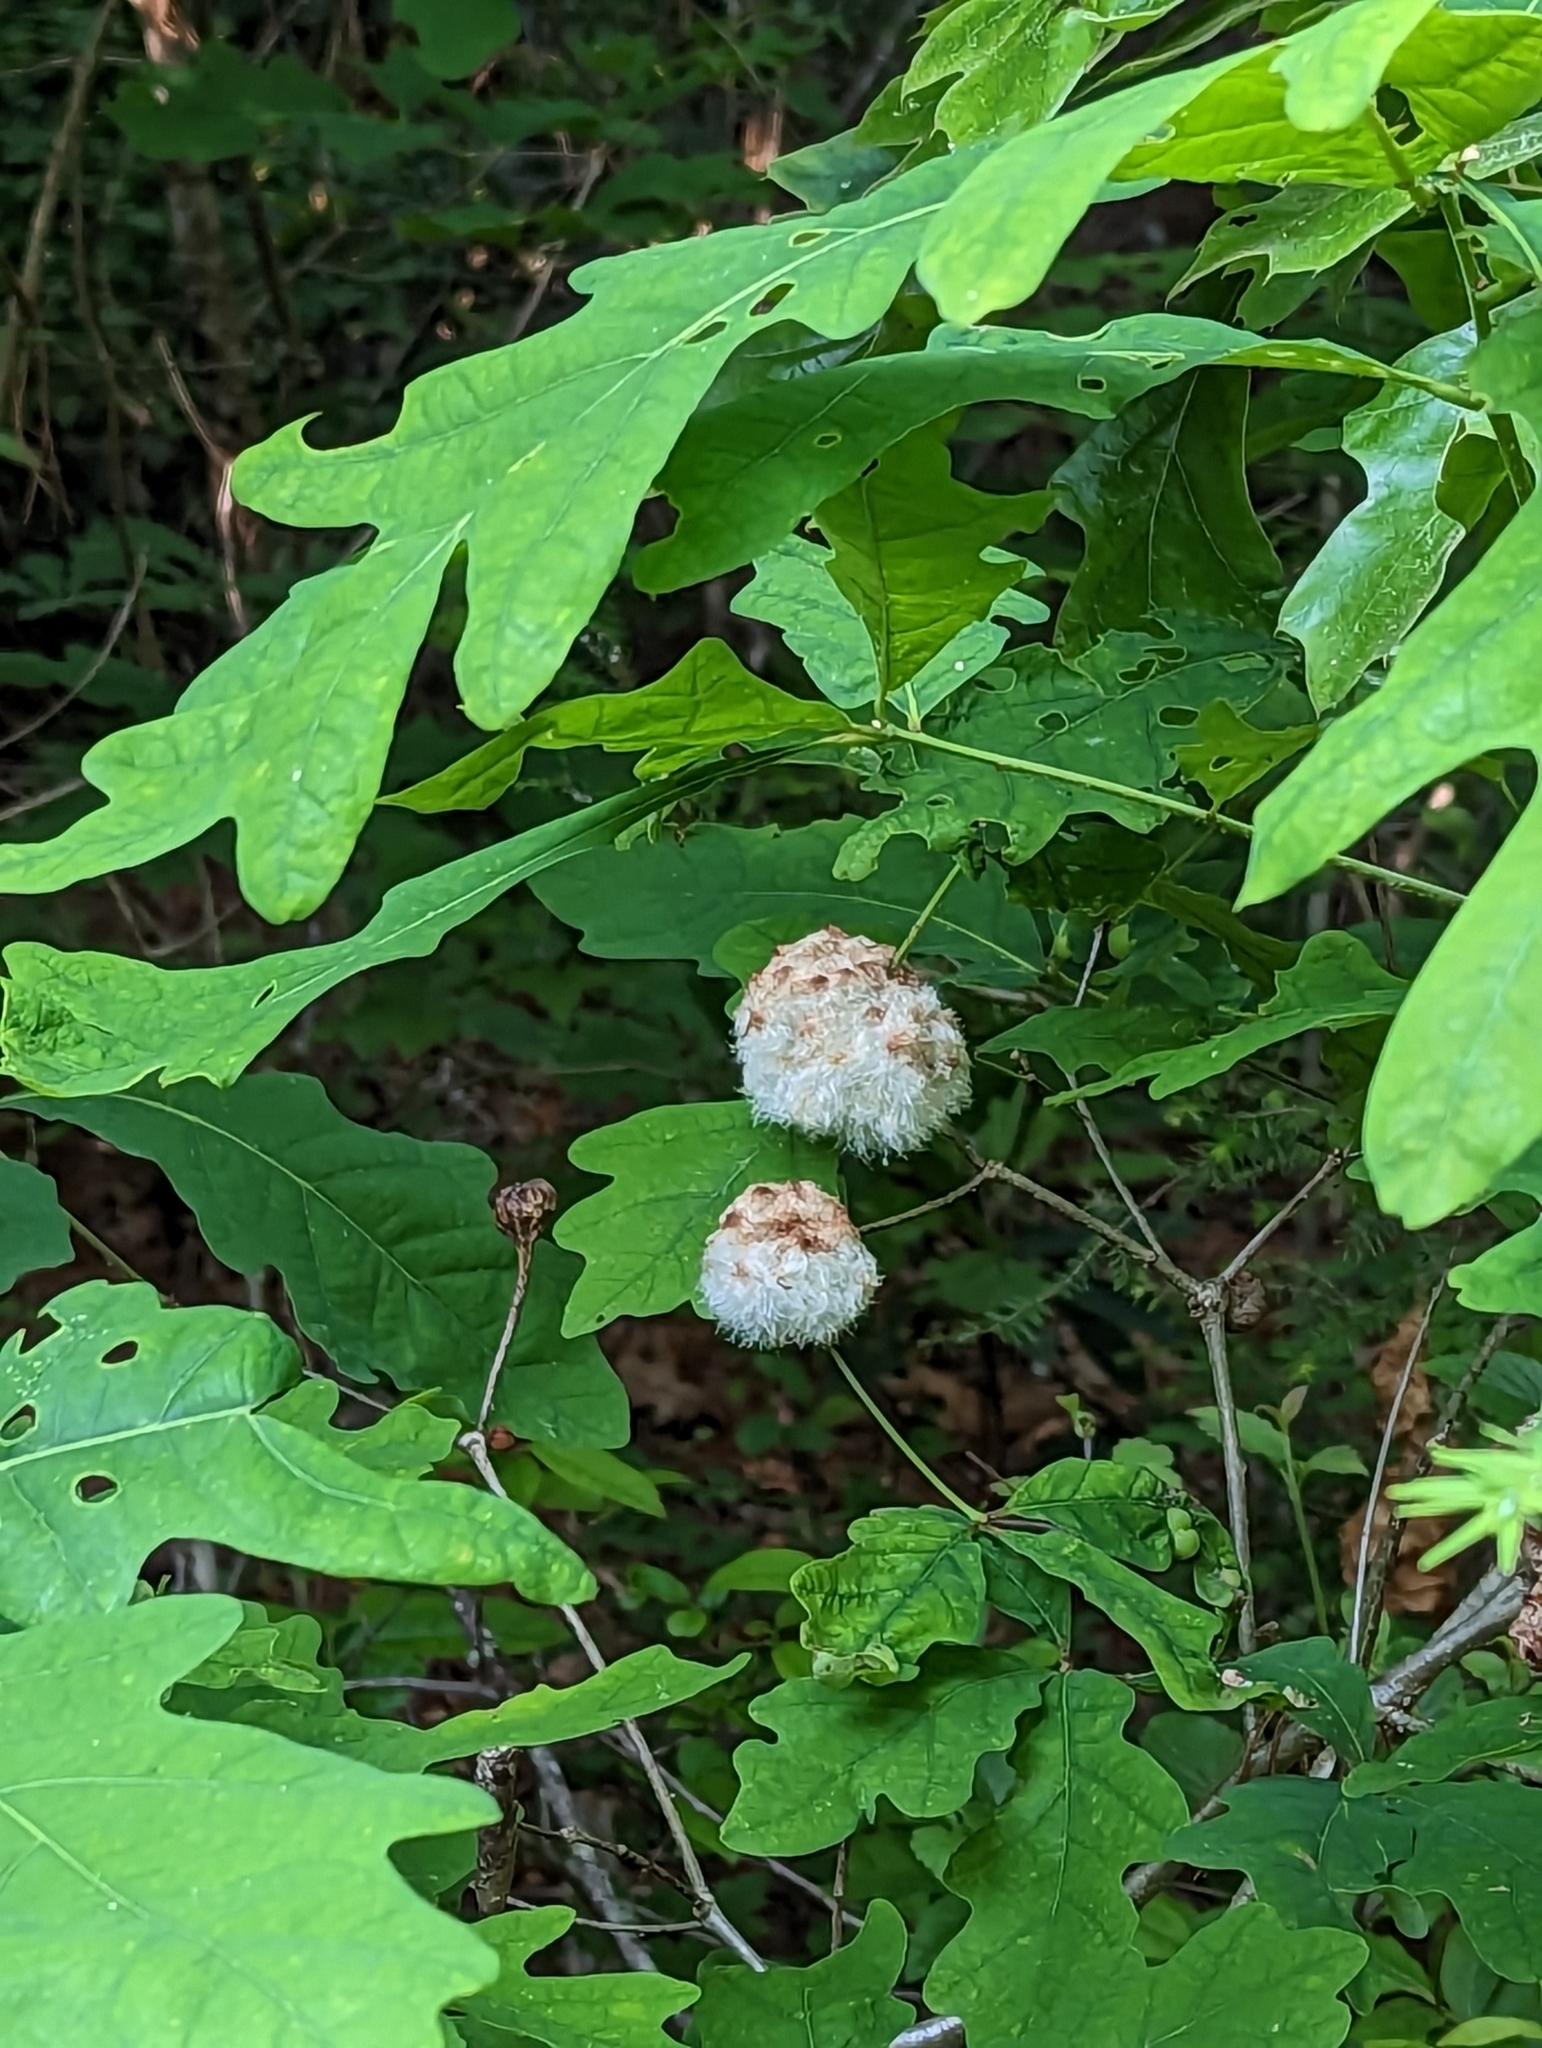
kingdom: Animalia
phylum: Arthropoda
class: Insecta
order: Hymenoptera
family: Cynipidae
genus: Callirhytis
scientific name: Callirhytis
